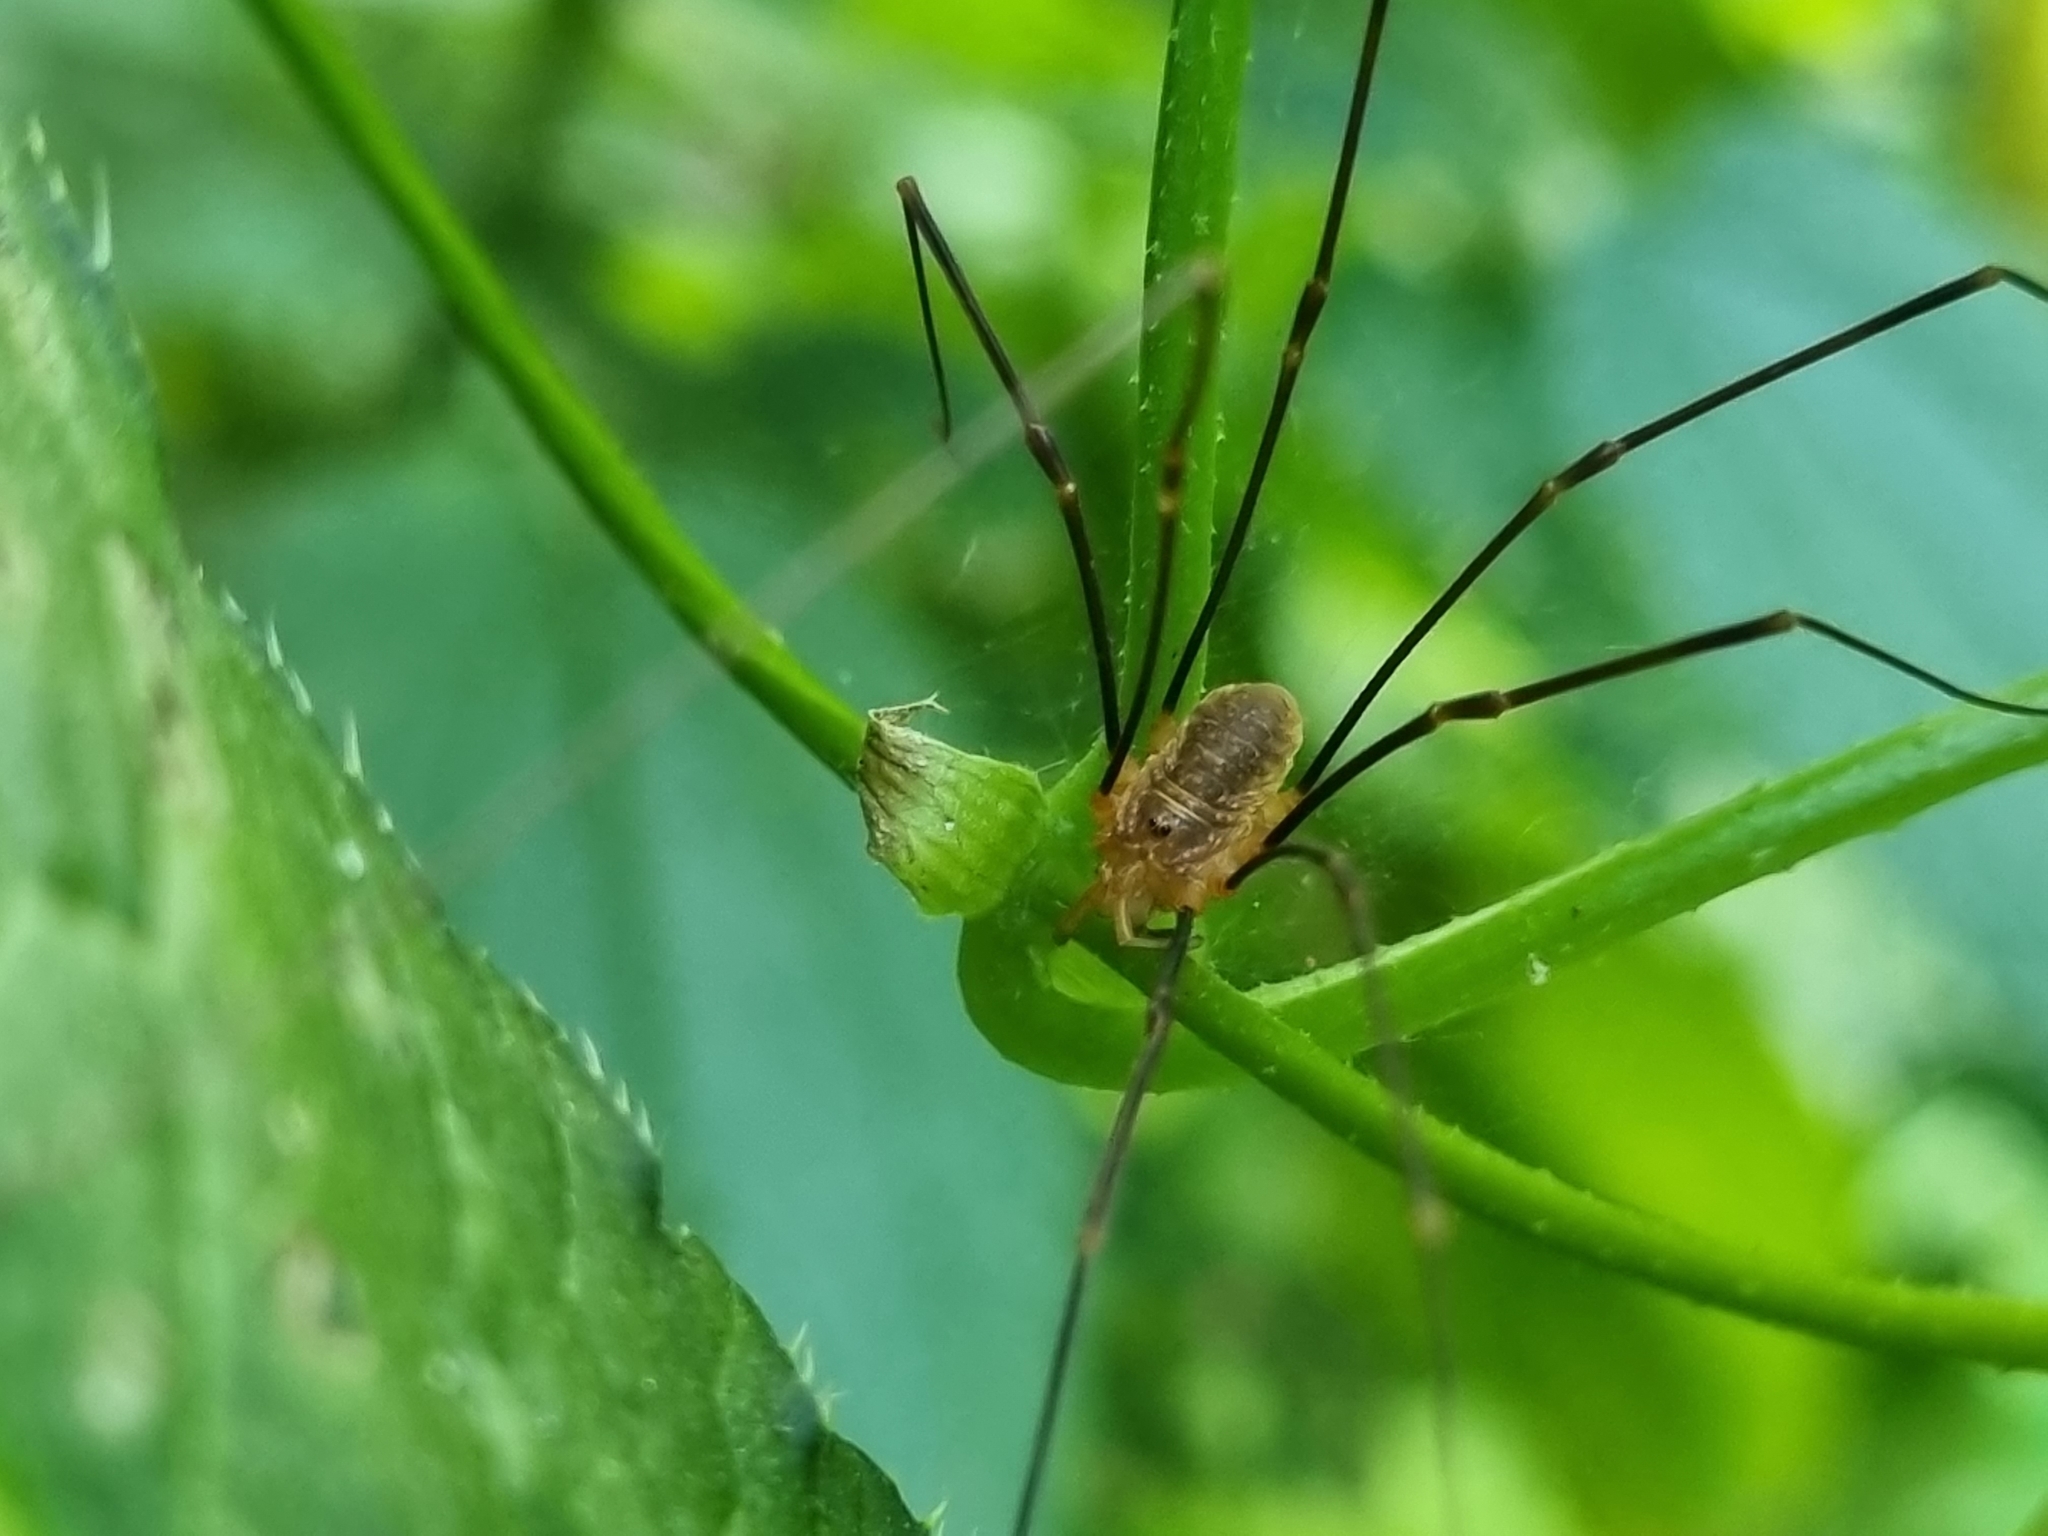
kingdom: Animalia
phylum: Arthropoda
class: Arachnida
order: Opiliones
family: Phalangiidae
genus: Opilio
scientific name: Opilio canestrinii
